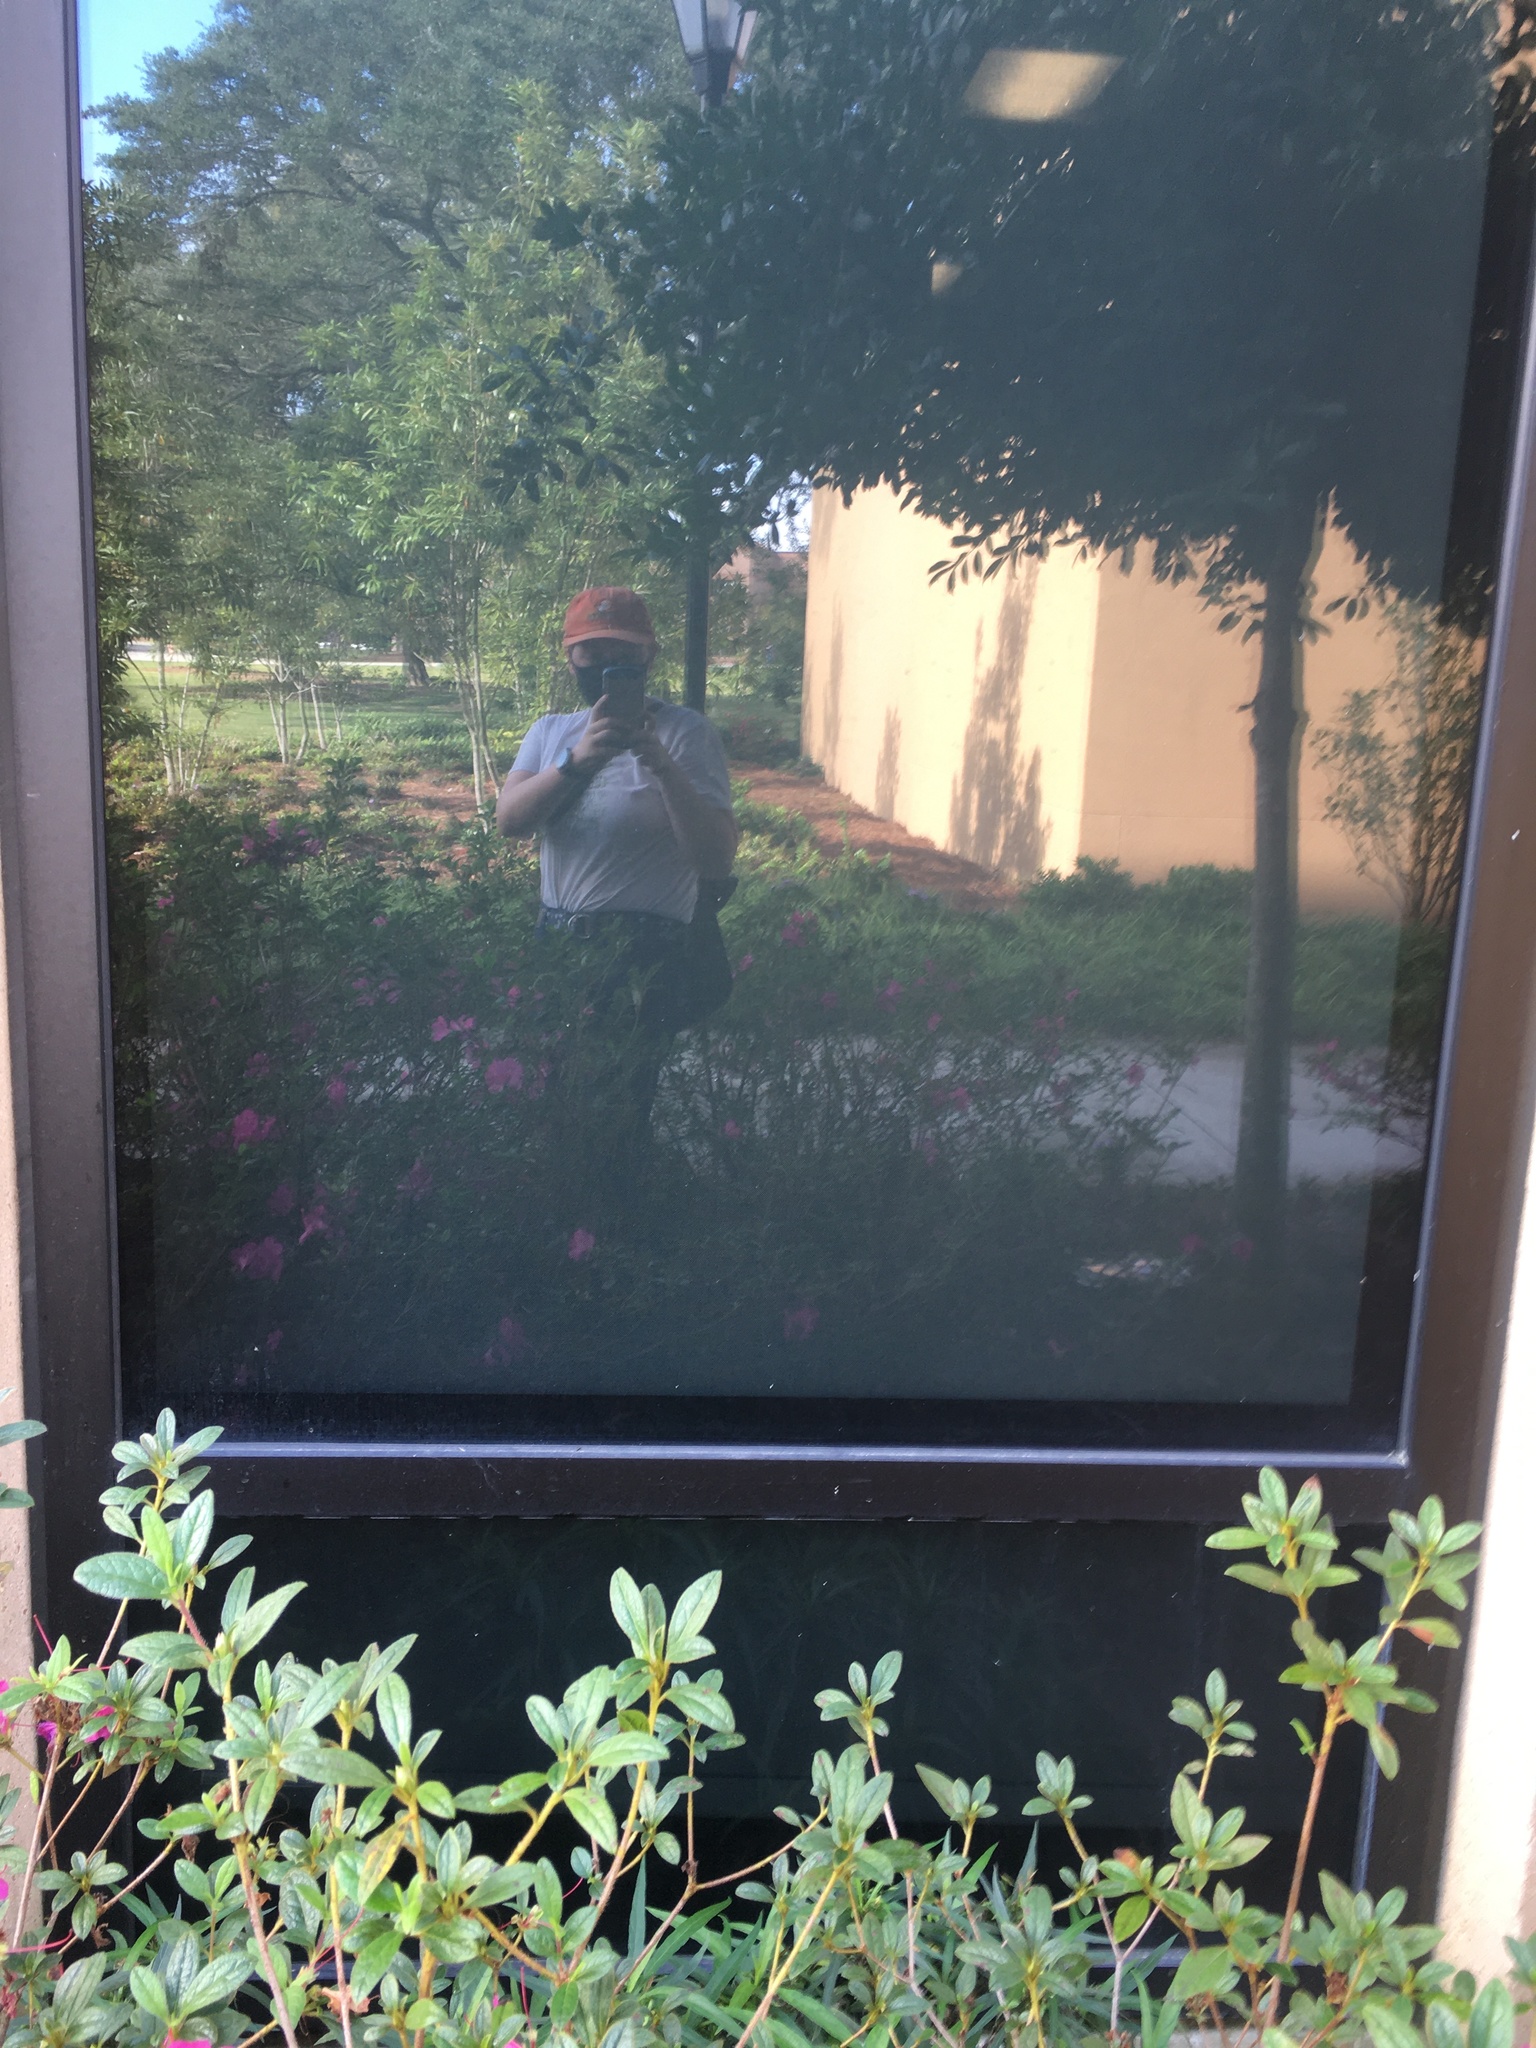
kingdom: Animalia
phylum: Chordata
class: Aves
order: Piciformes
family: Picidae
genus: Sphyrapicus
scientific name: Sphyrapicus varius
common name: Yellow-bellied sapsucker
